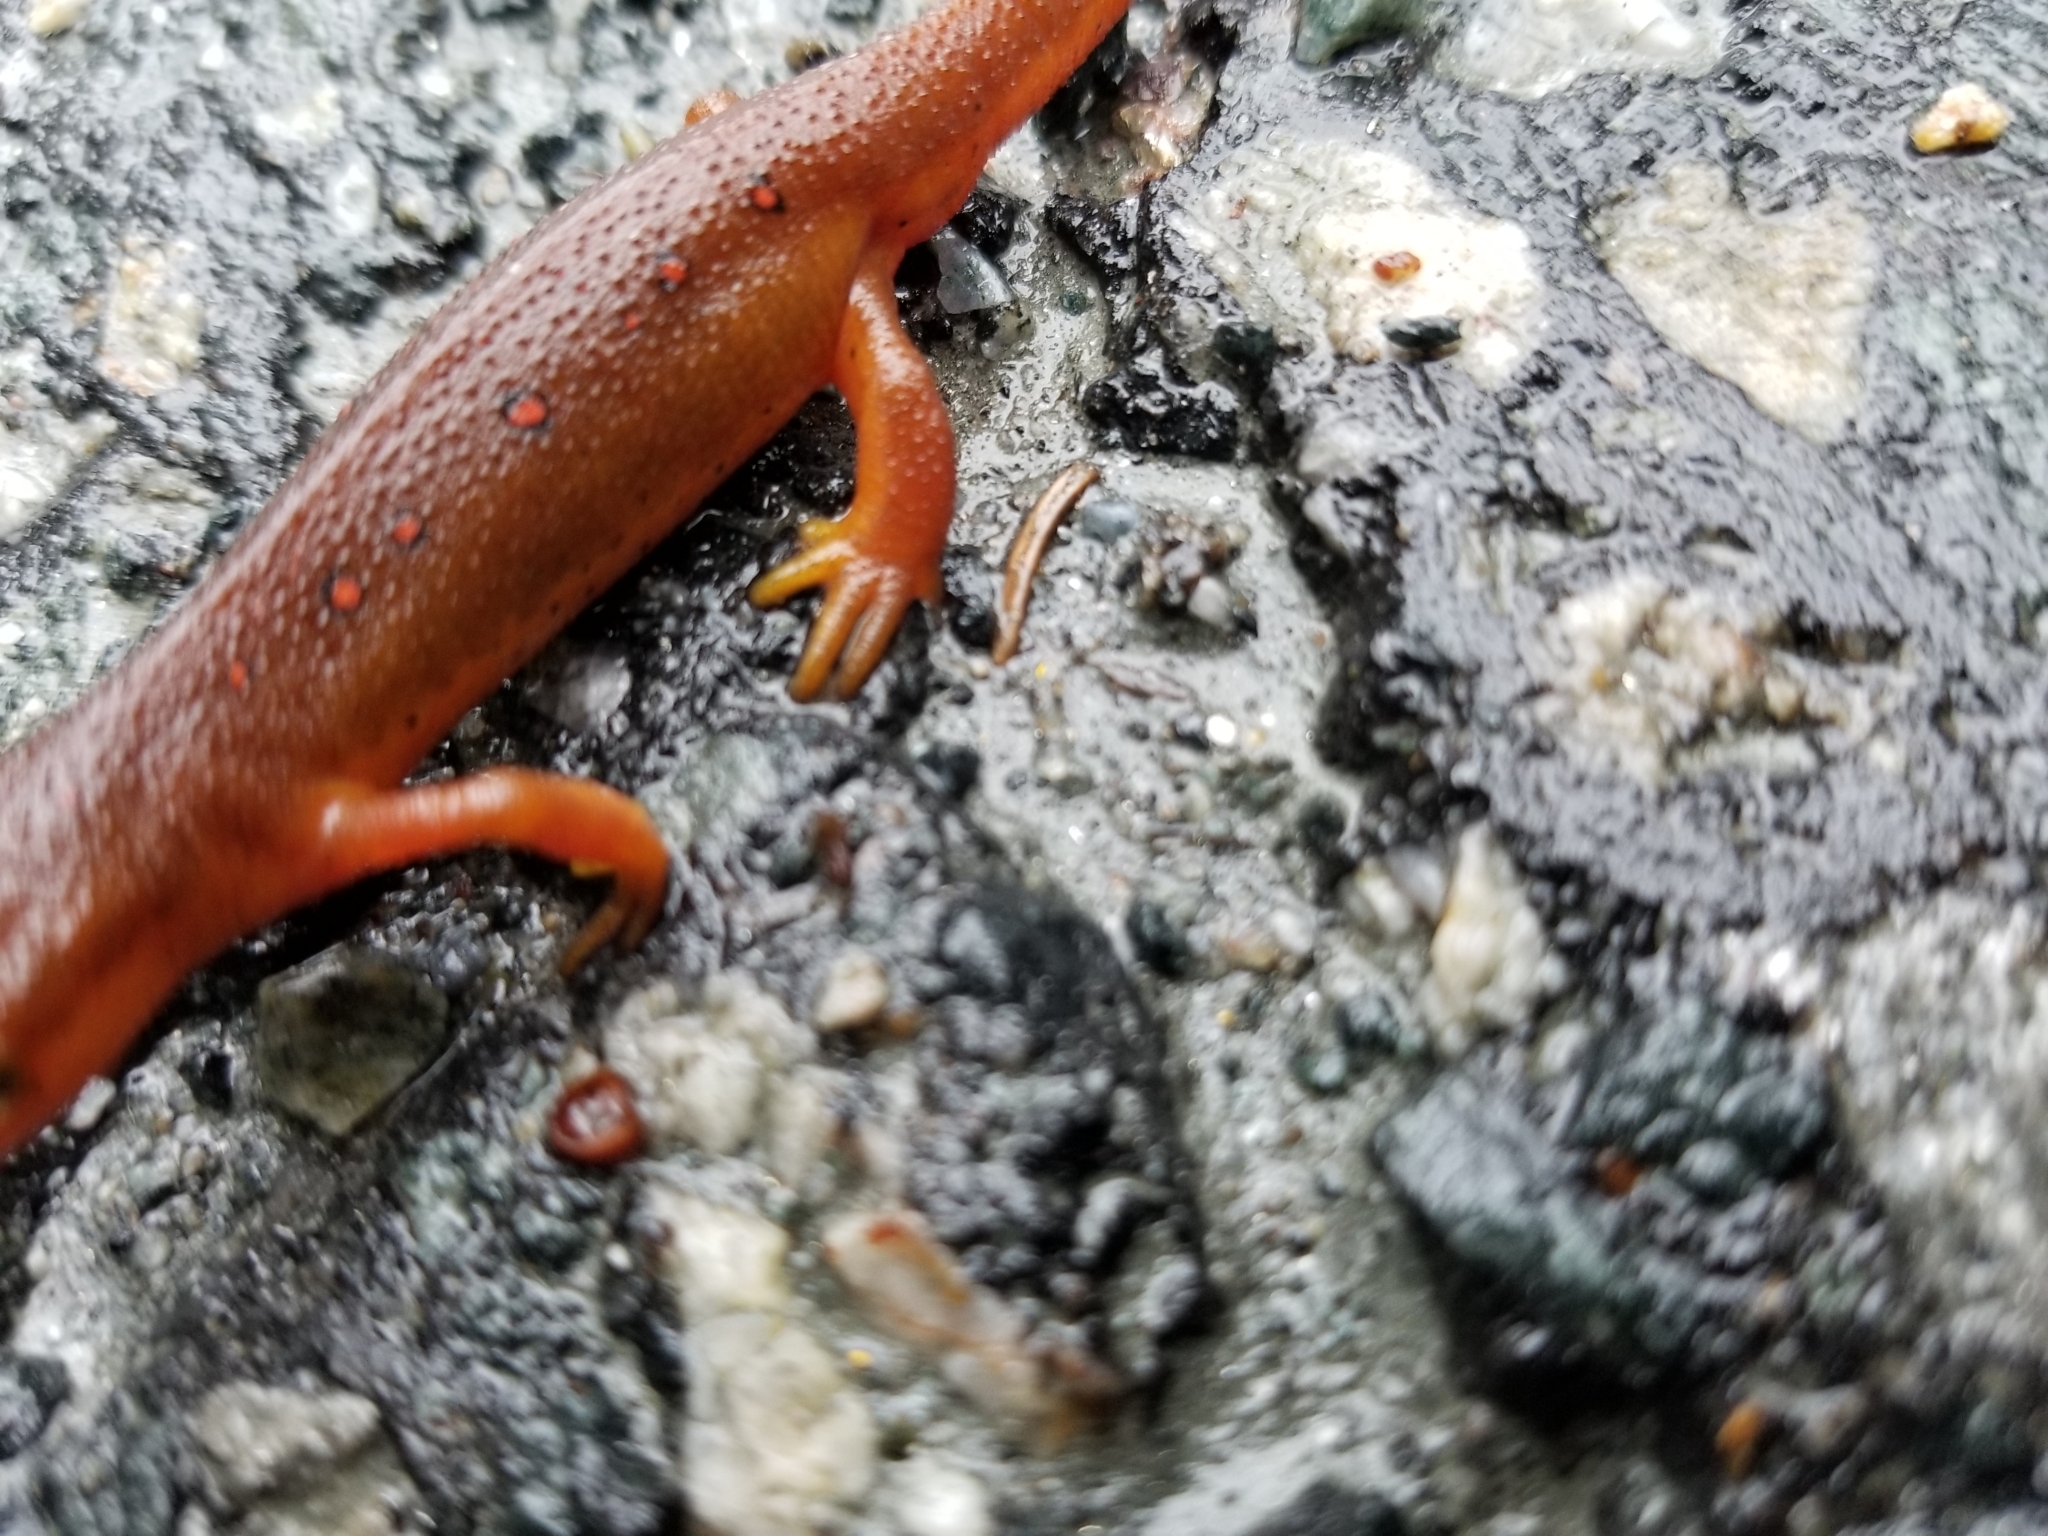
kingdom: Animalia
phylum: Chordata
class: Amphibia
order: Caudata
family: Salamandridae
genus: Notophthalmus
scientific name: Notophthalmus viridescens
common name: Eastern newt
